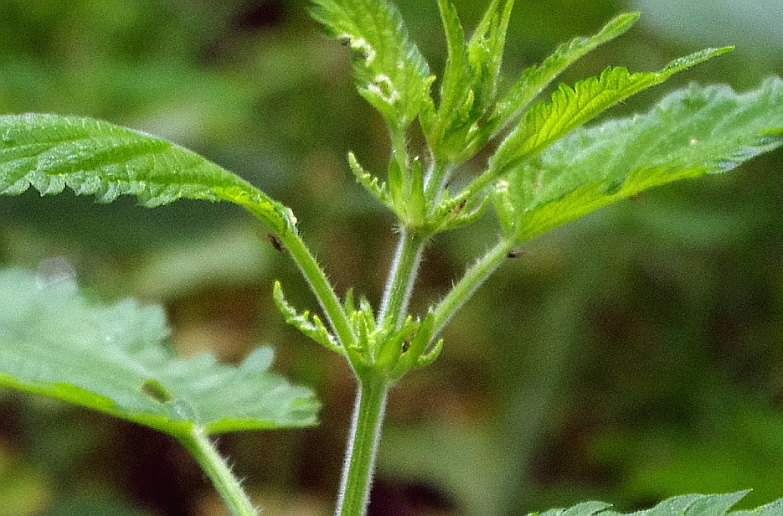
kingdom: Plantae
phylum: Tracheophyta
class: Magnoliopsida
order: Rosales
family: Urticaceae
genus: Urtica
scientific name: Urtica dioica
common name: Common nettle
